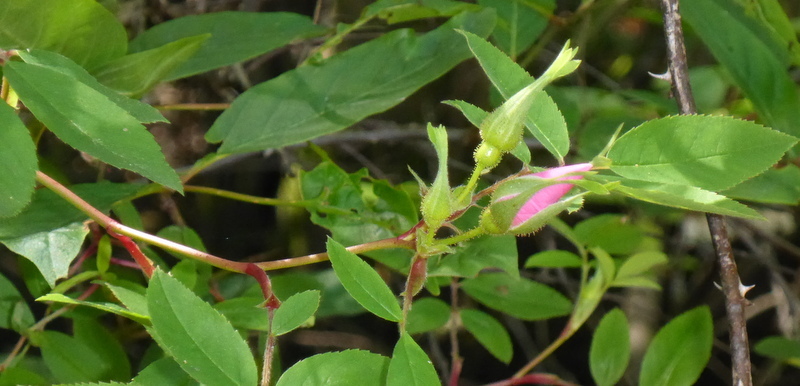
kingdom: Plantae
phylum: Tracheophyta
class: Magnoliopsida
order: Rosales
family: Rosaceae
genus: Rosa
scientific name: Rosa palustris
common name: Swamp rose
